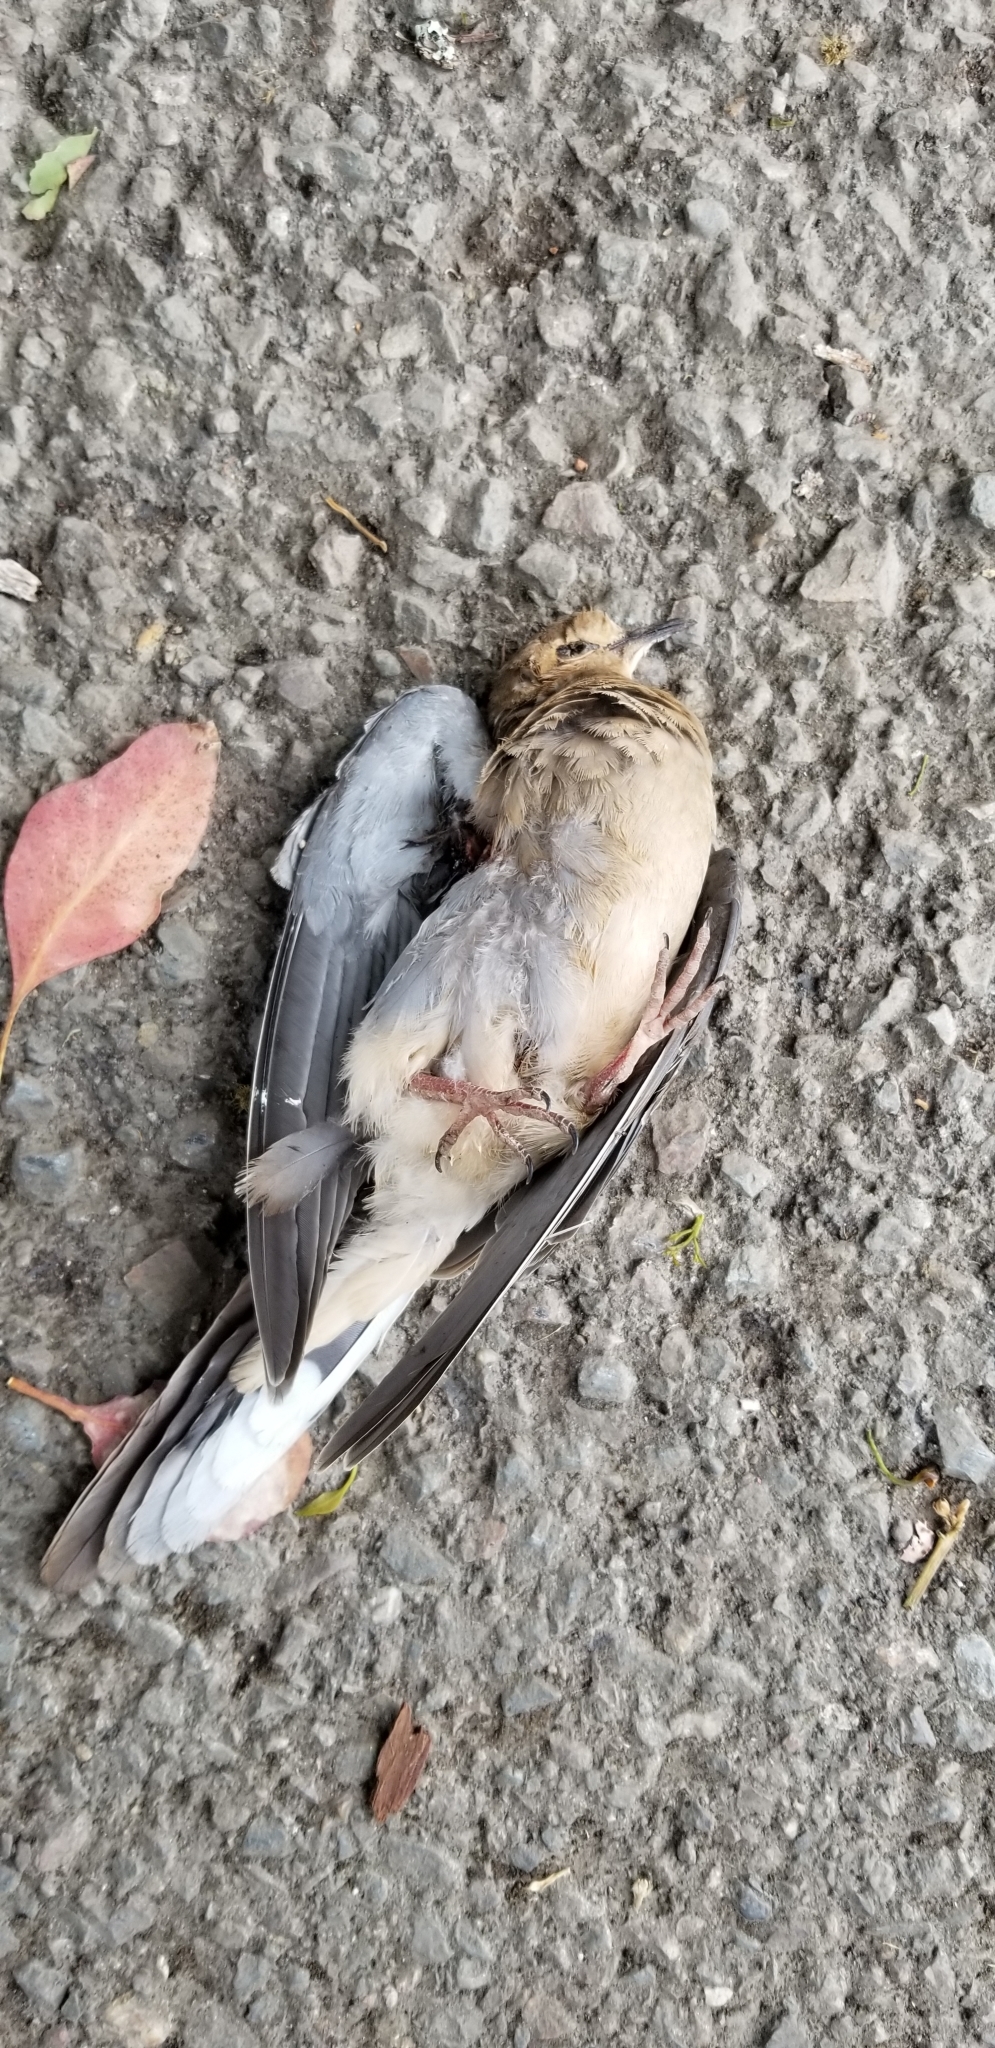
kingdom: Animalia
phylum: Chordata
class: Aves
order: Columbiformes
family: Columbidae
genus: Zenaida
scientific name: Zenaida macroura
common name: Mourning dove
